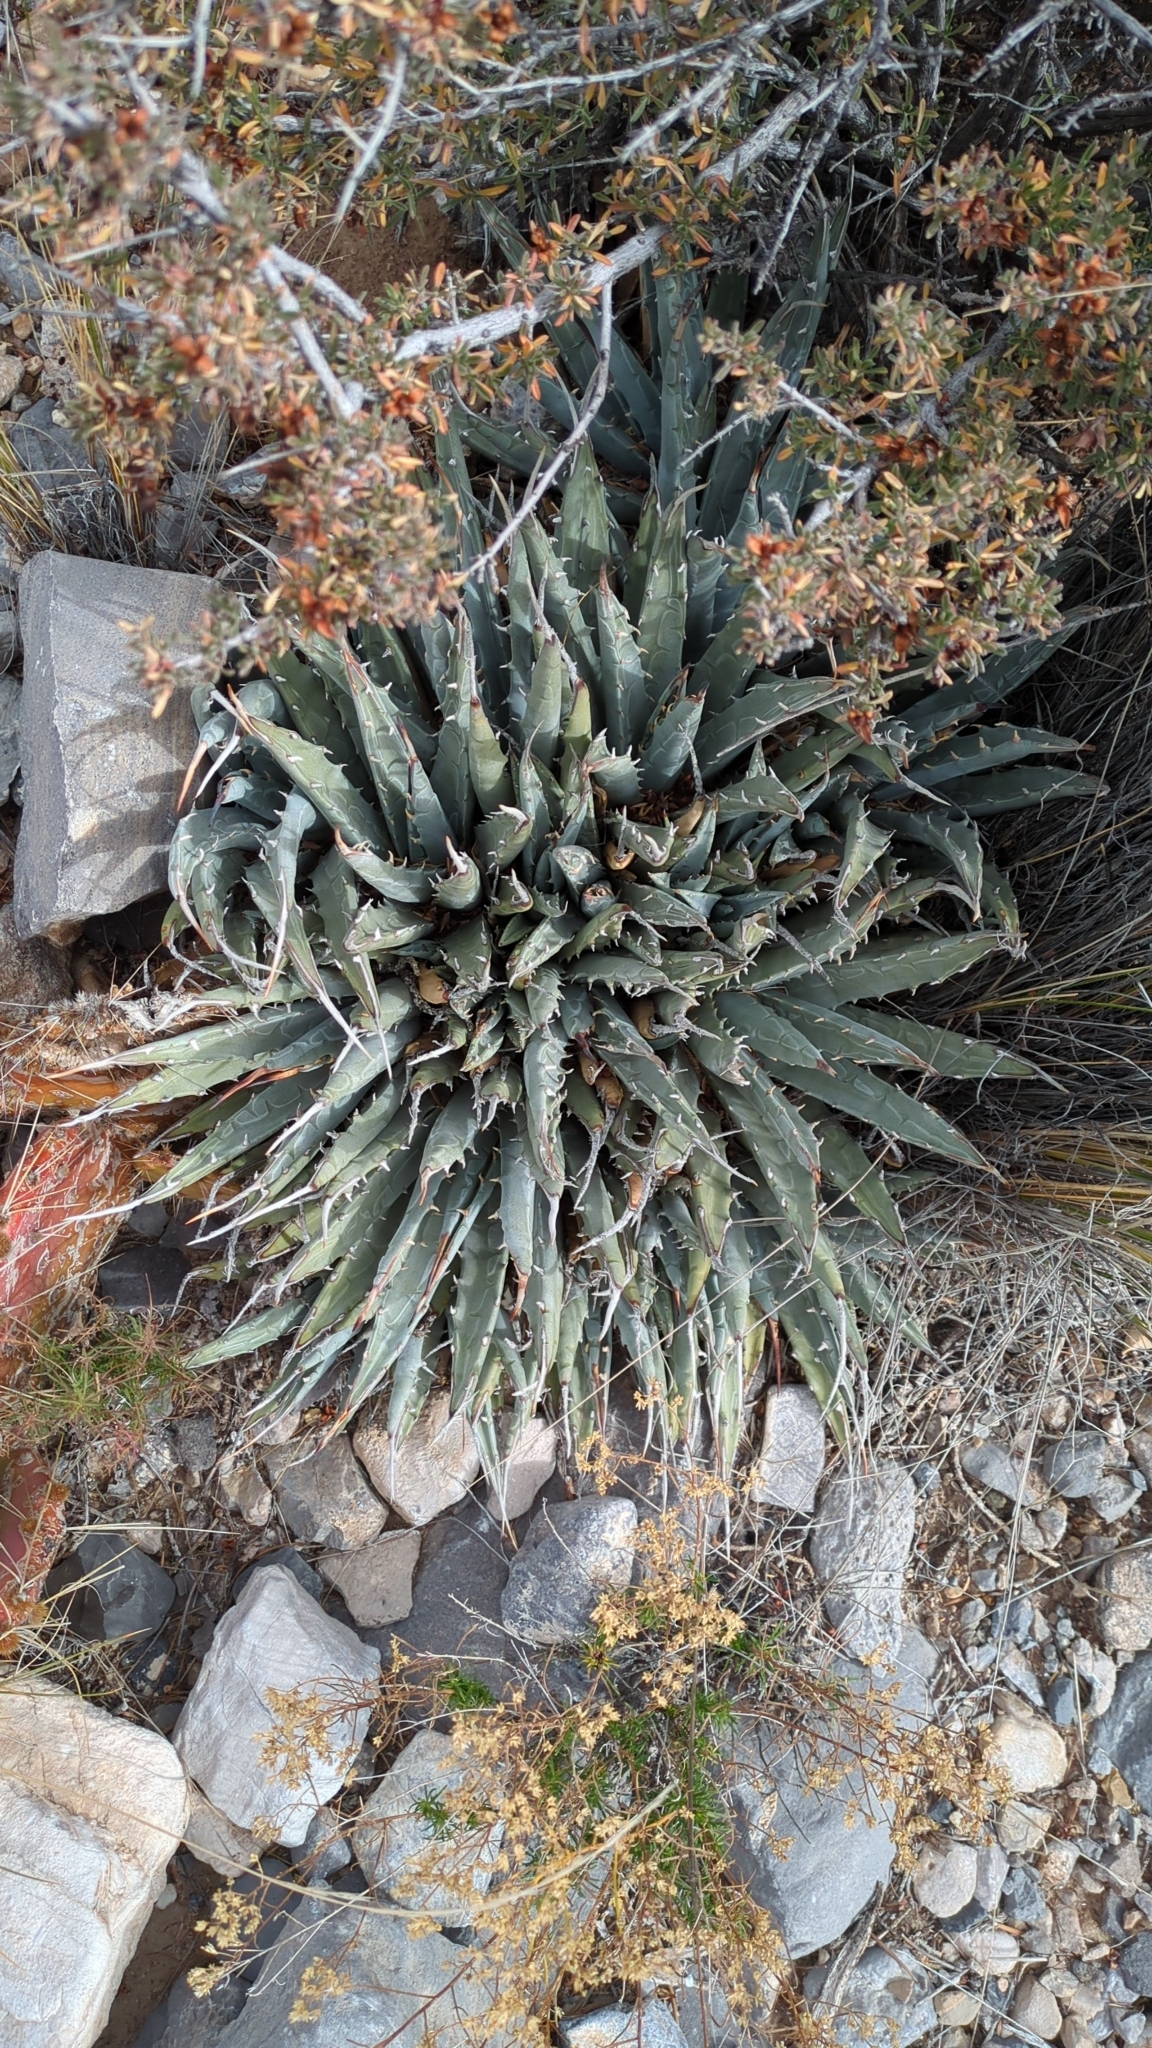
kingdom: Plantae
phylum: Tracheophyta
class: Liliopsida
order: Asparagales
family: Asparagaceae
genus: Agave
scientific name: Agave utahensis
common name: Utah agave
